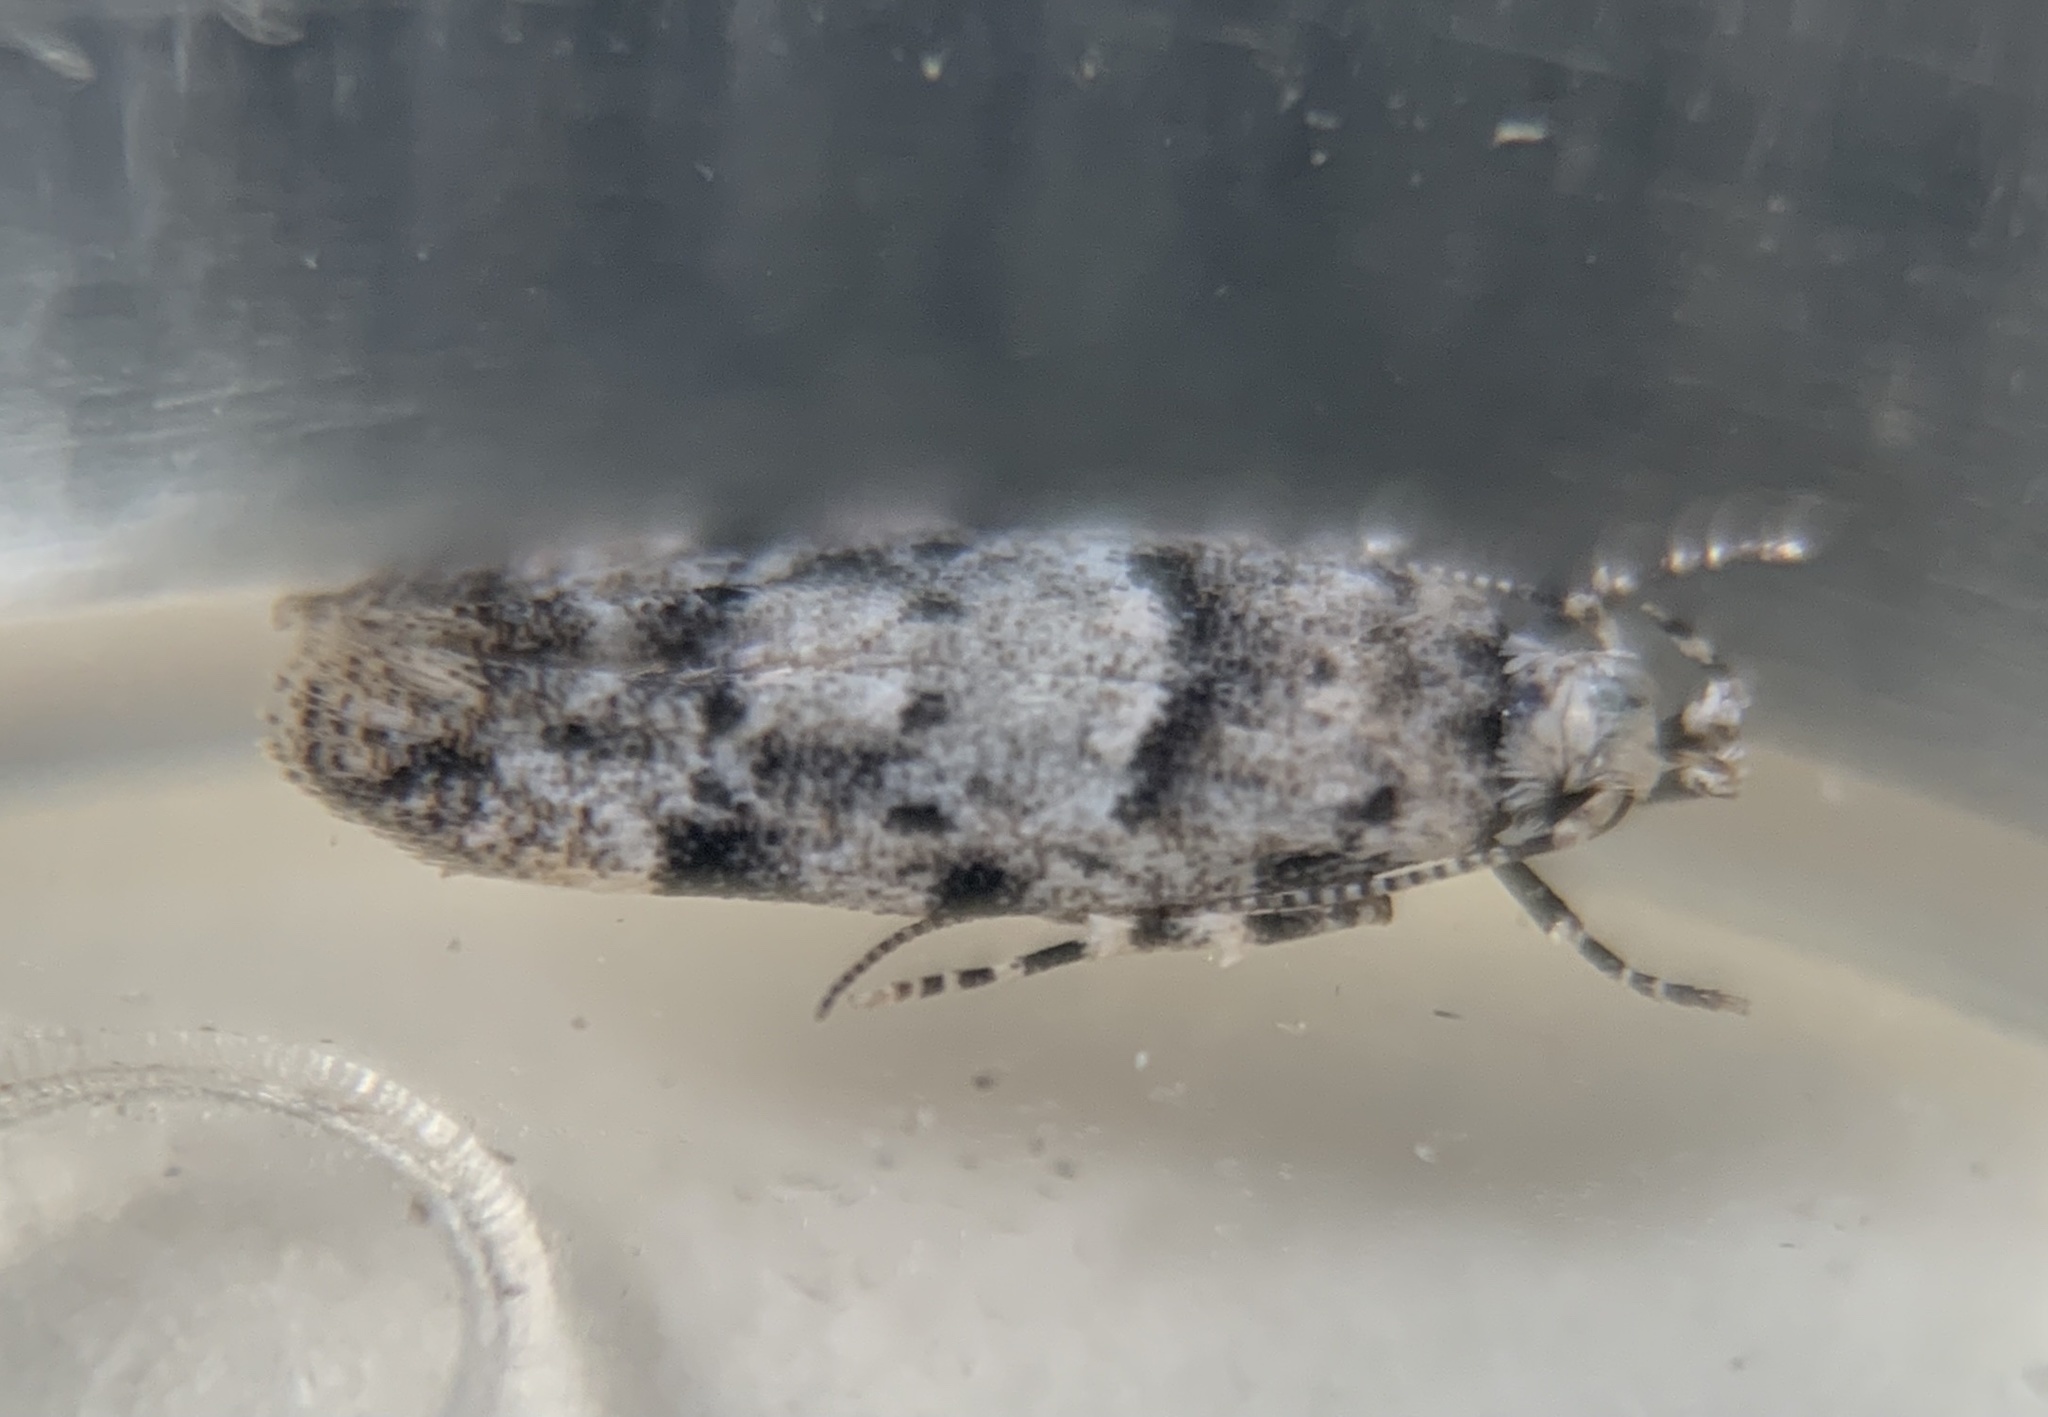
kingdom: Animalia
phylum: Arthropoda
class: Insecta
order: Lepidoptera
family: Gelechiidae
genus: Sinoe
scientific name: Sinoe kwakae
